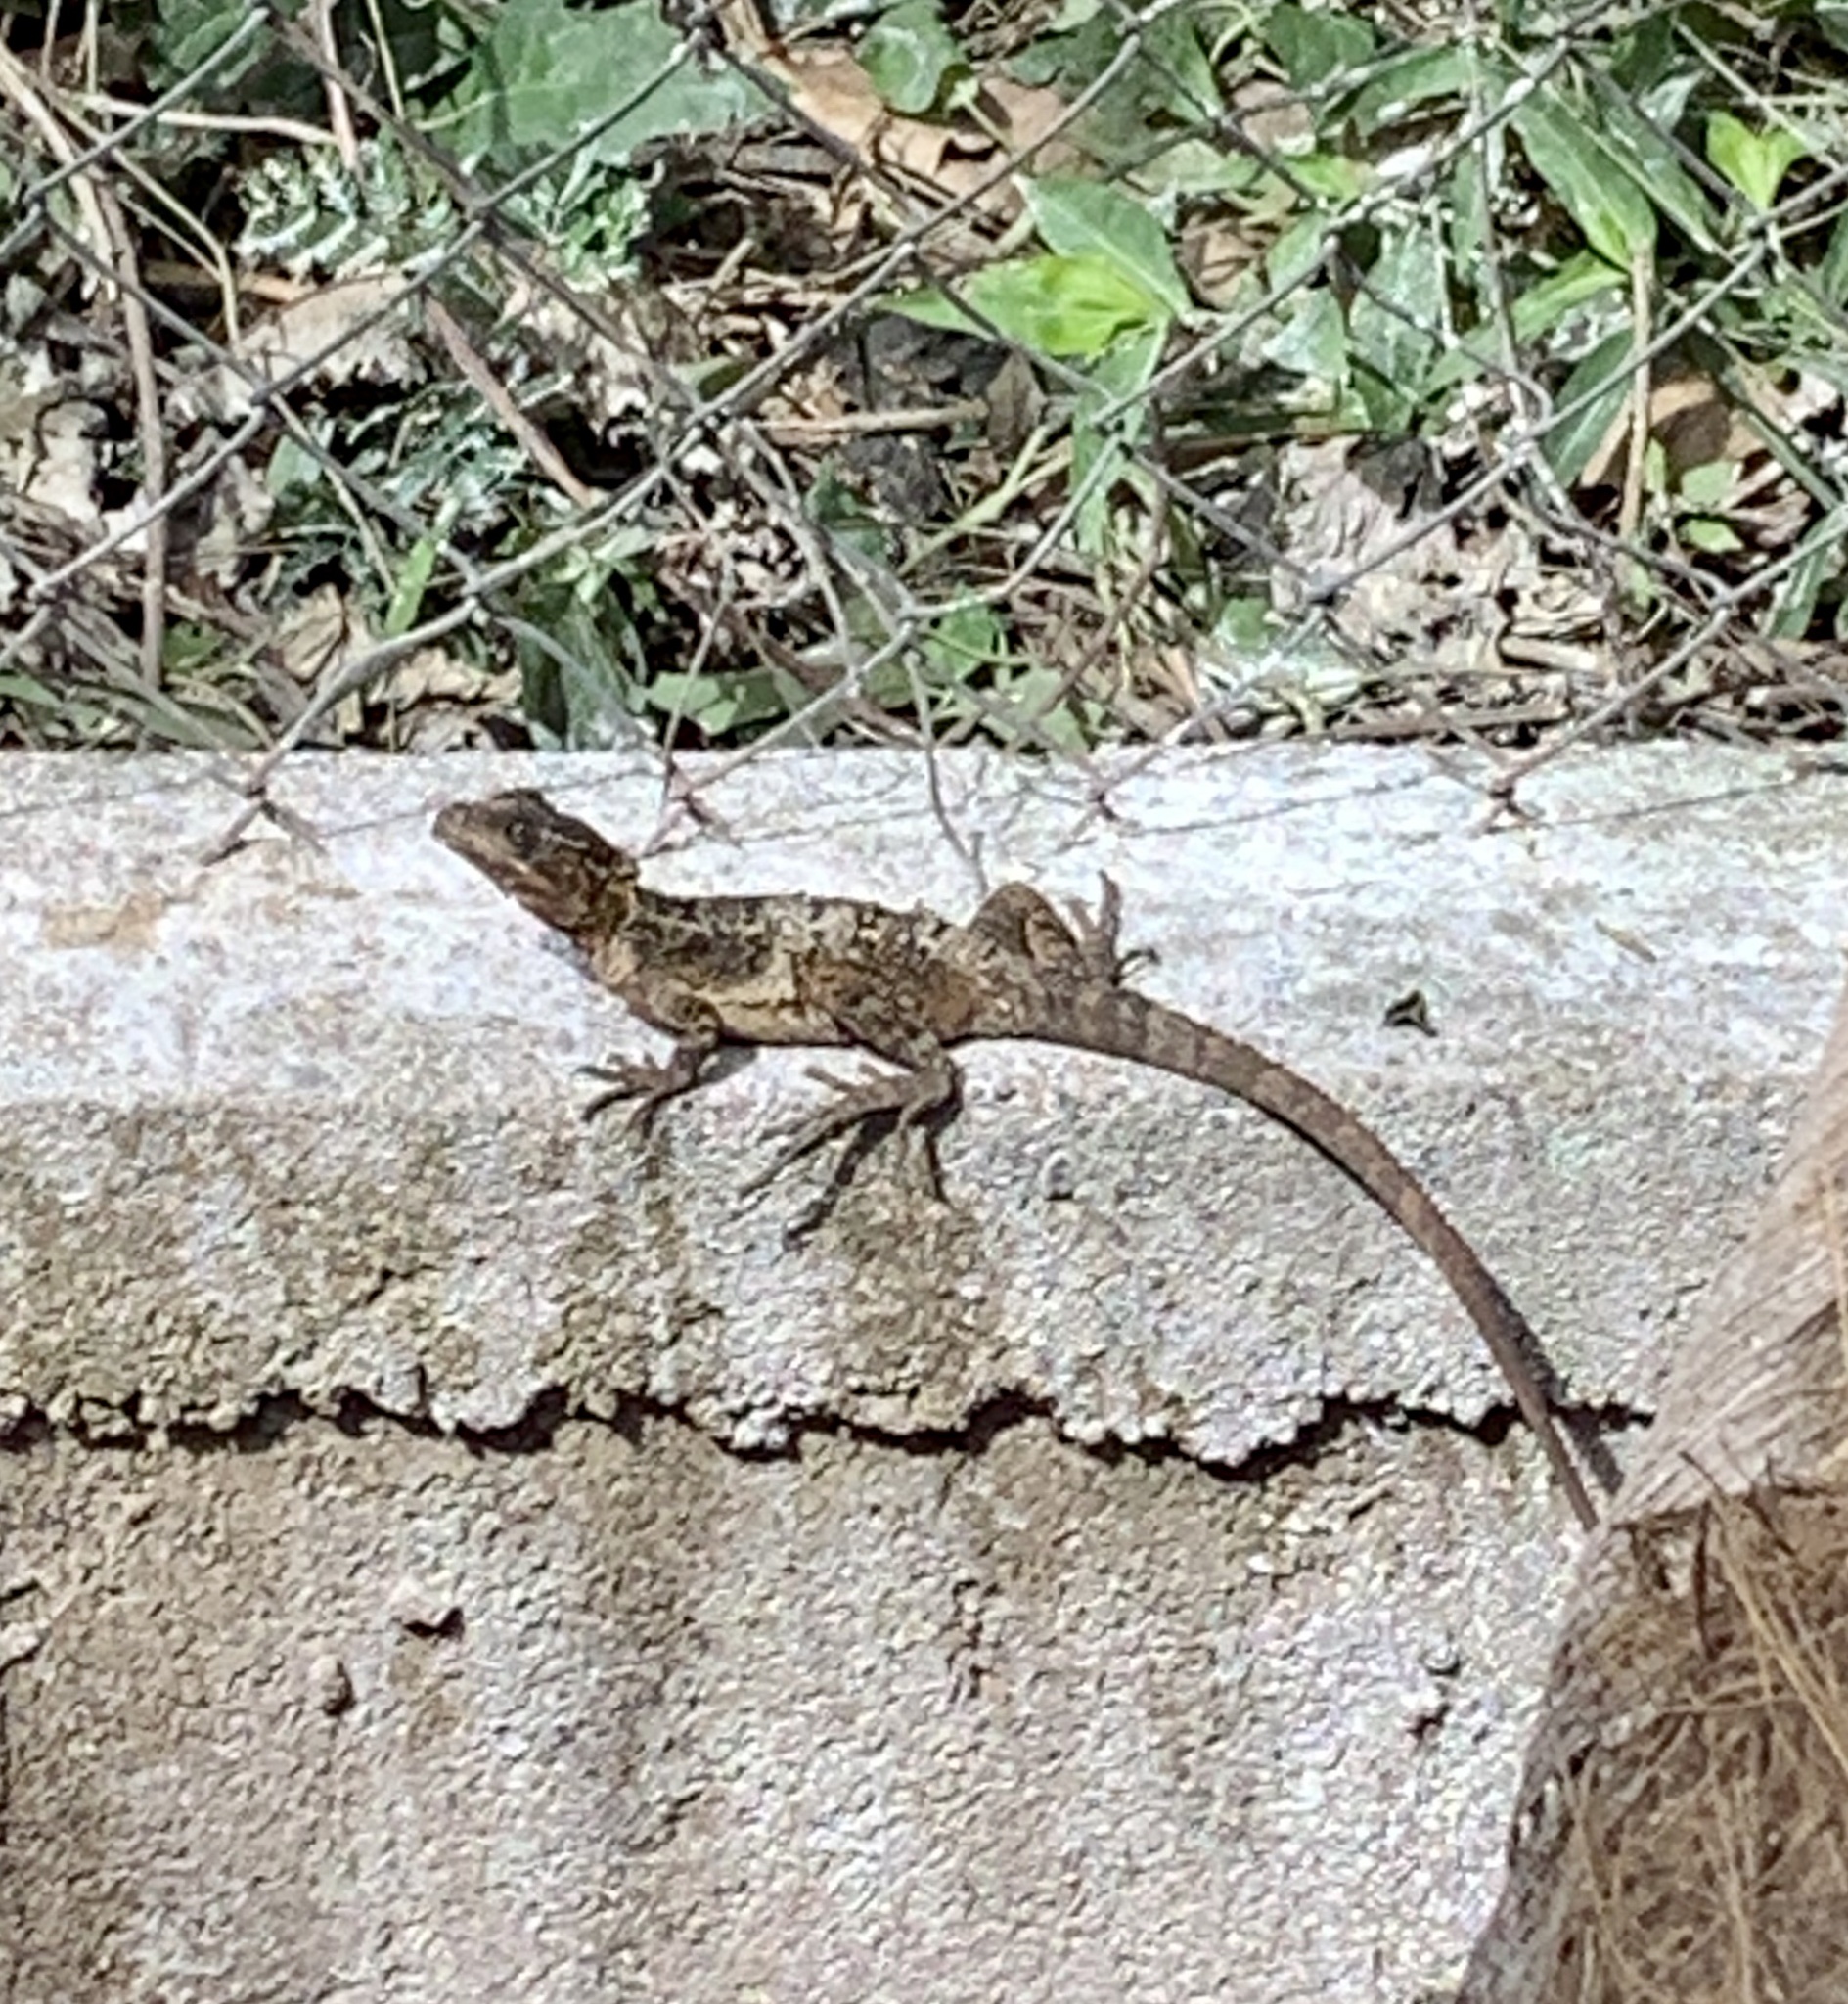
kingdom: Animalia
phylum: Chordata
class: Squamata
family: Corytophanidae
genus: Basiliscus
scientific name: Basiliscus vittatus
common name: Brown basilisk
